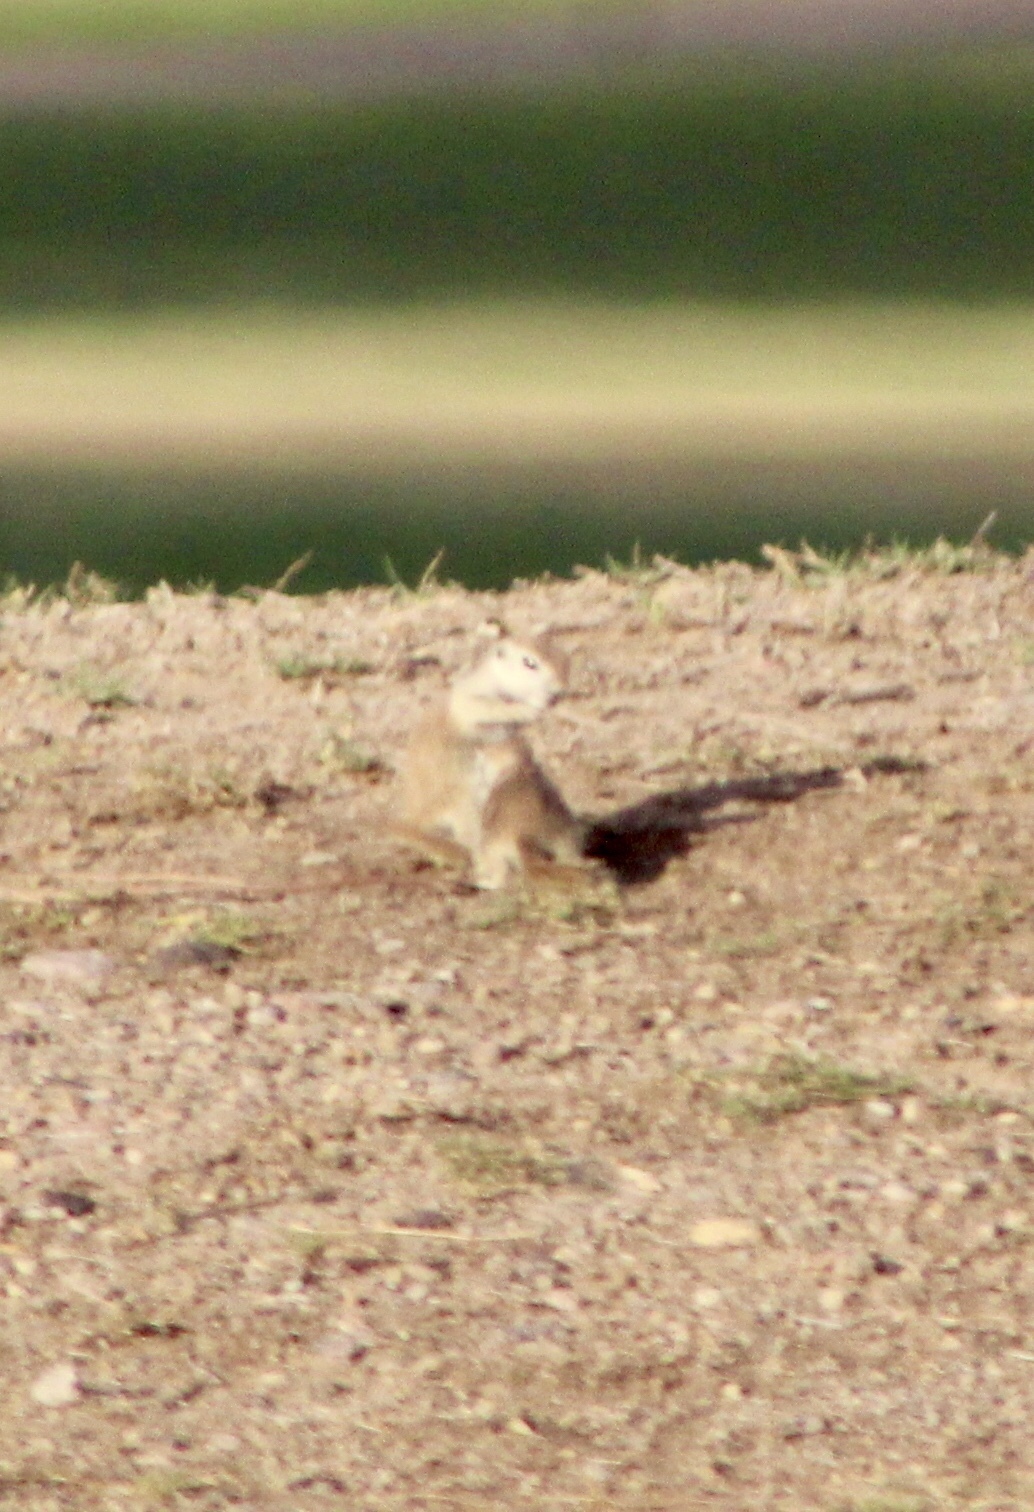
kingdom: Animalia
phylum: Chordata
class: Mammalia
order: Rodentia
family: Sciuridae
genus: Xerospermophilus
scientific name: Xerospermophilus tereticaudus
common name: Round-tailed ground squirrel
